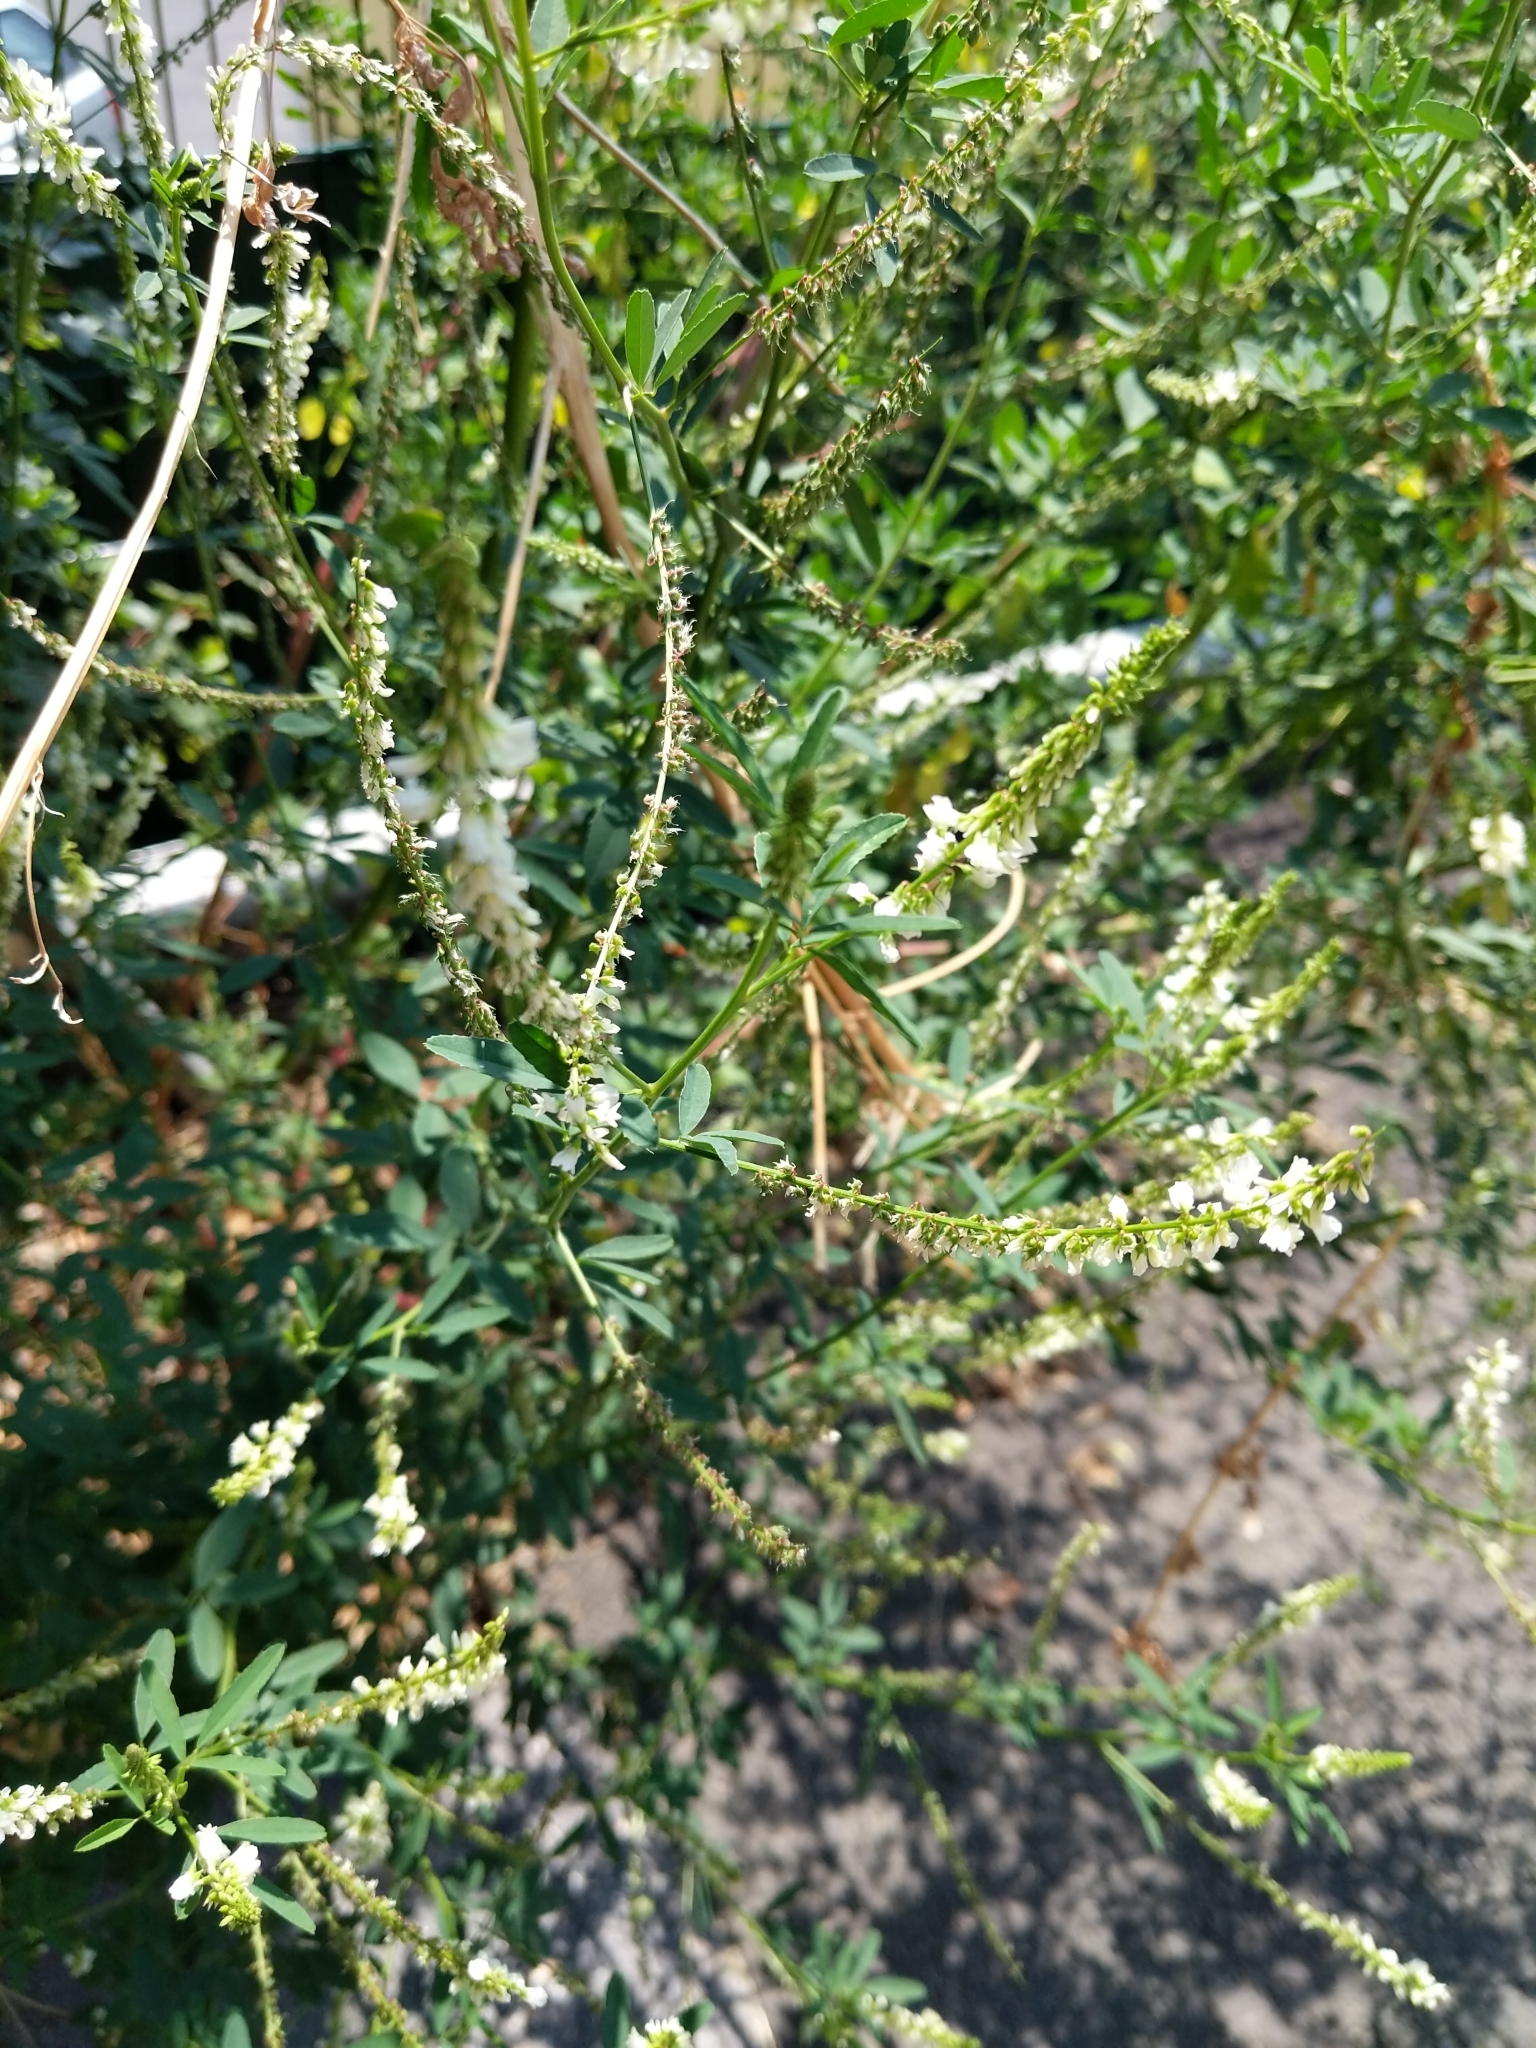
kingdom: Plantae
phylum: Tracheophyta
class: Magnoliopsida
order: Fabales
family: Fabaceae
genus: Melilotus
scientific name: Melilotus albus
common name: White melilot
